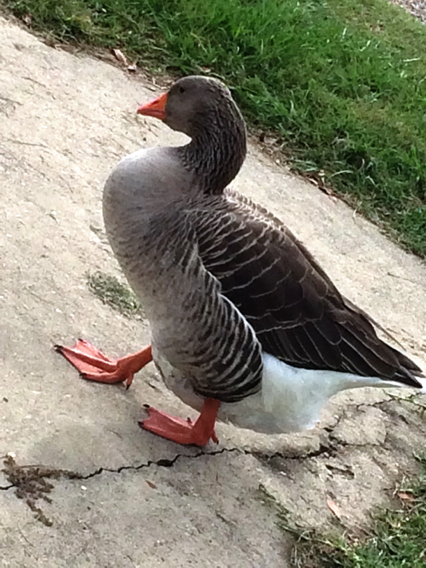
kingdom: Animalia
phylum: Chordata
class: Aves
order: Anseriformes
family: Anatidae
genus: Anser
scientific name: Anser anser
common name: Greylag goose
